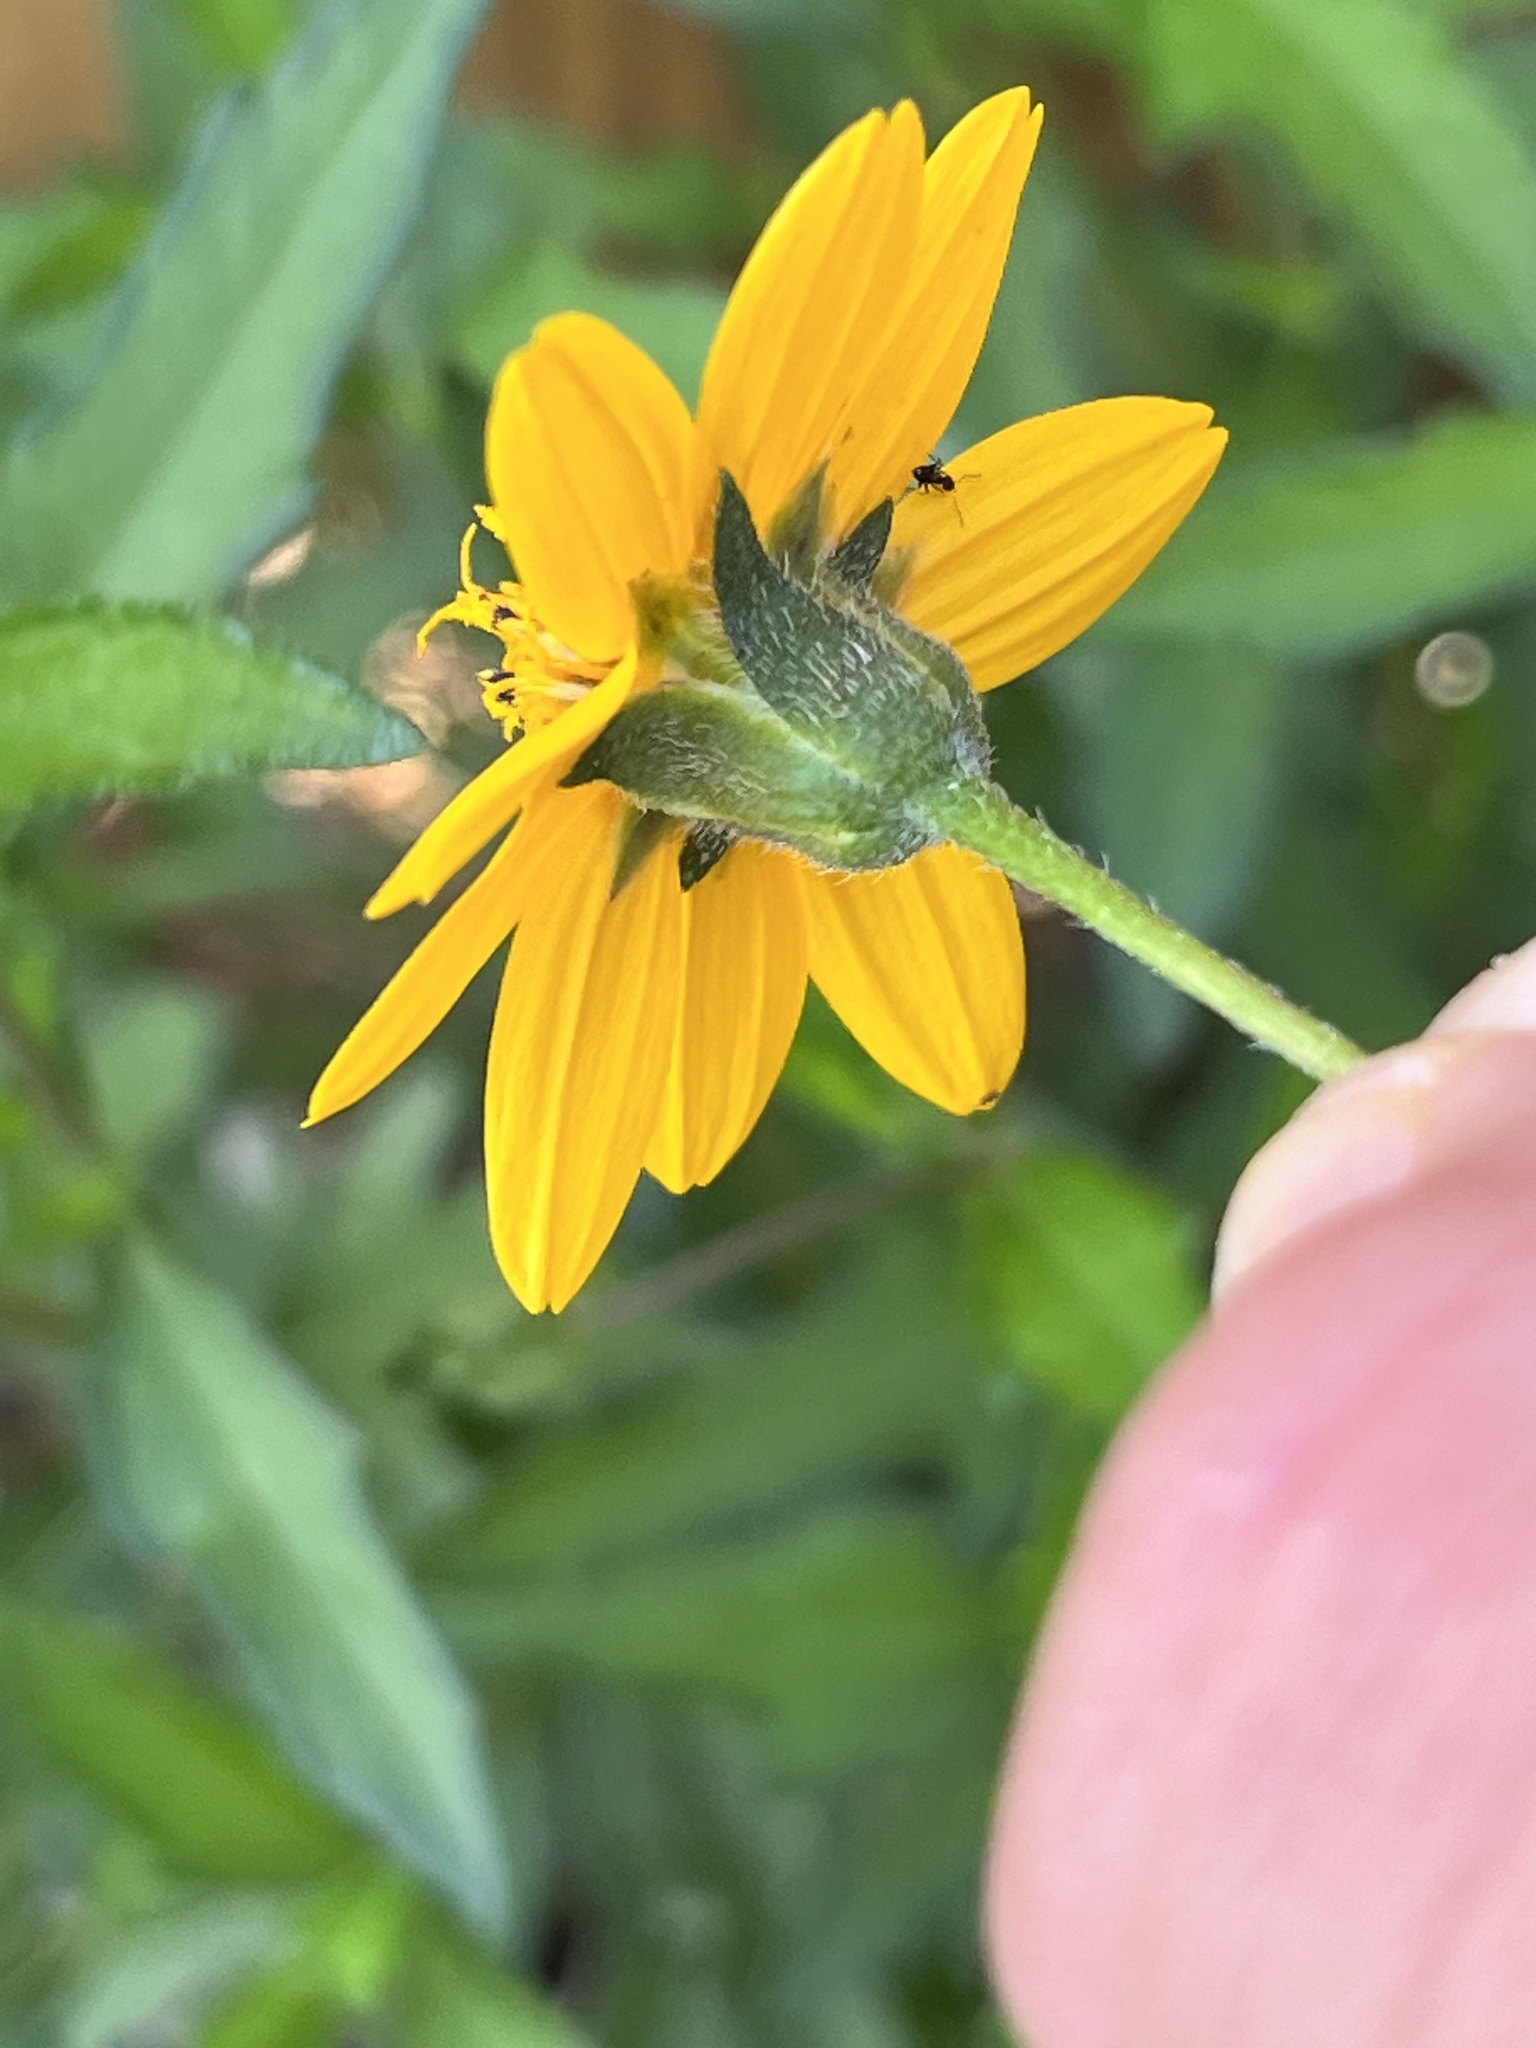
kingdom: Plantae
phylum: Tracheophyta
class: Magnoliopsida
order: Asterales
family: Asteraceae
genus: Wedelia
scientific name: Wedelia acapulcensis
